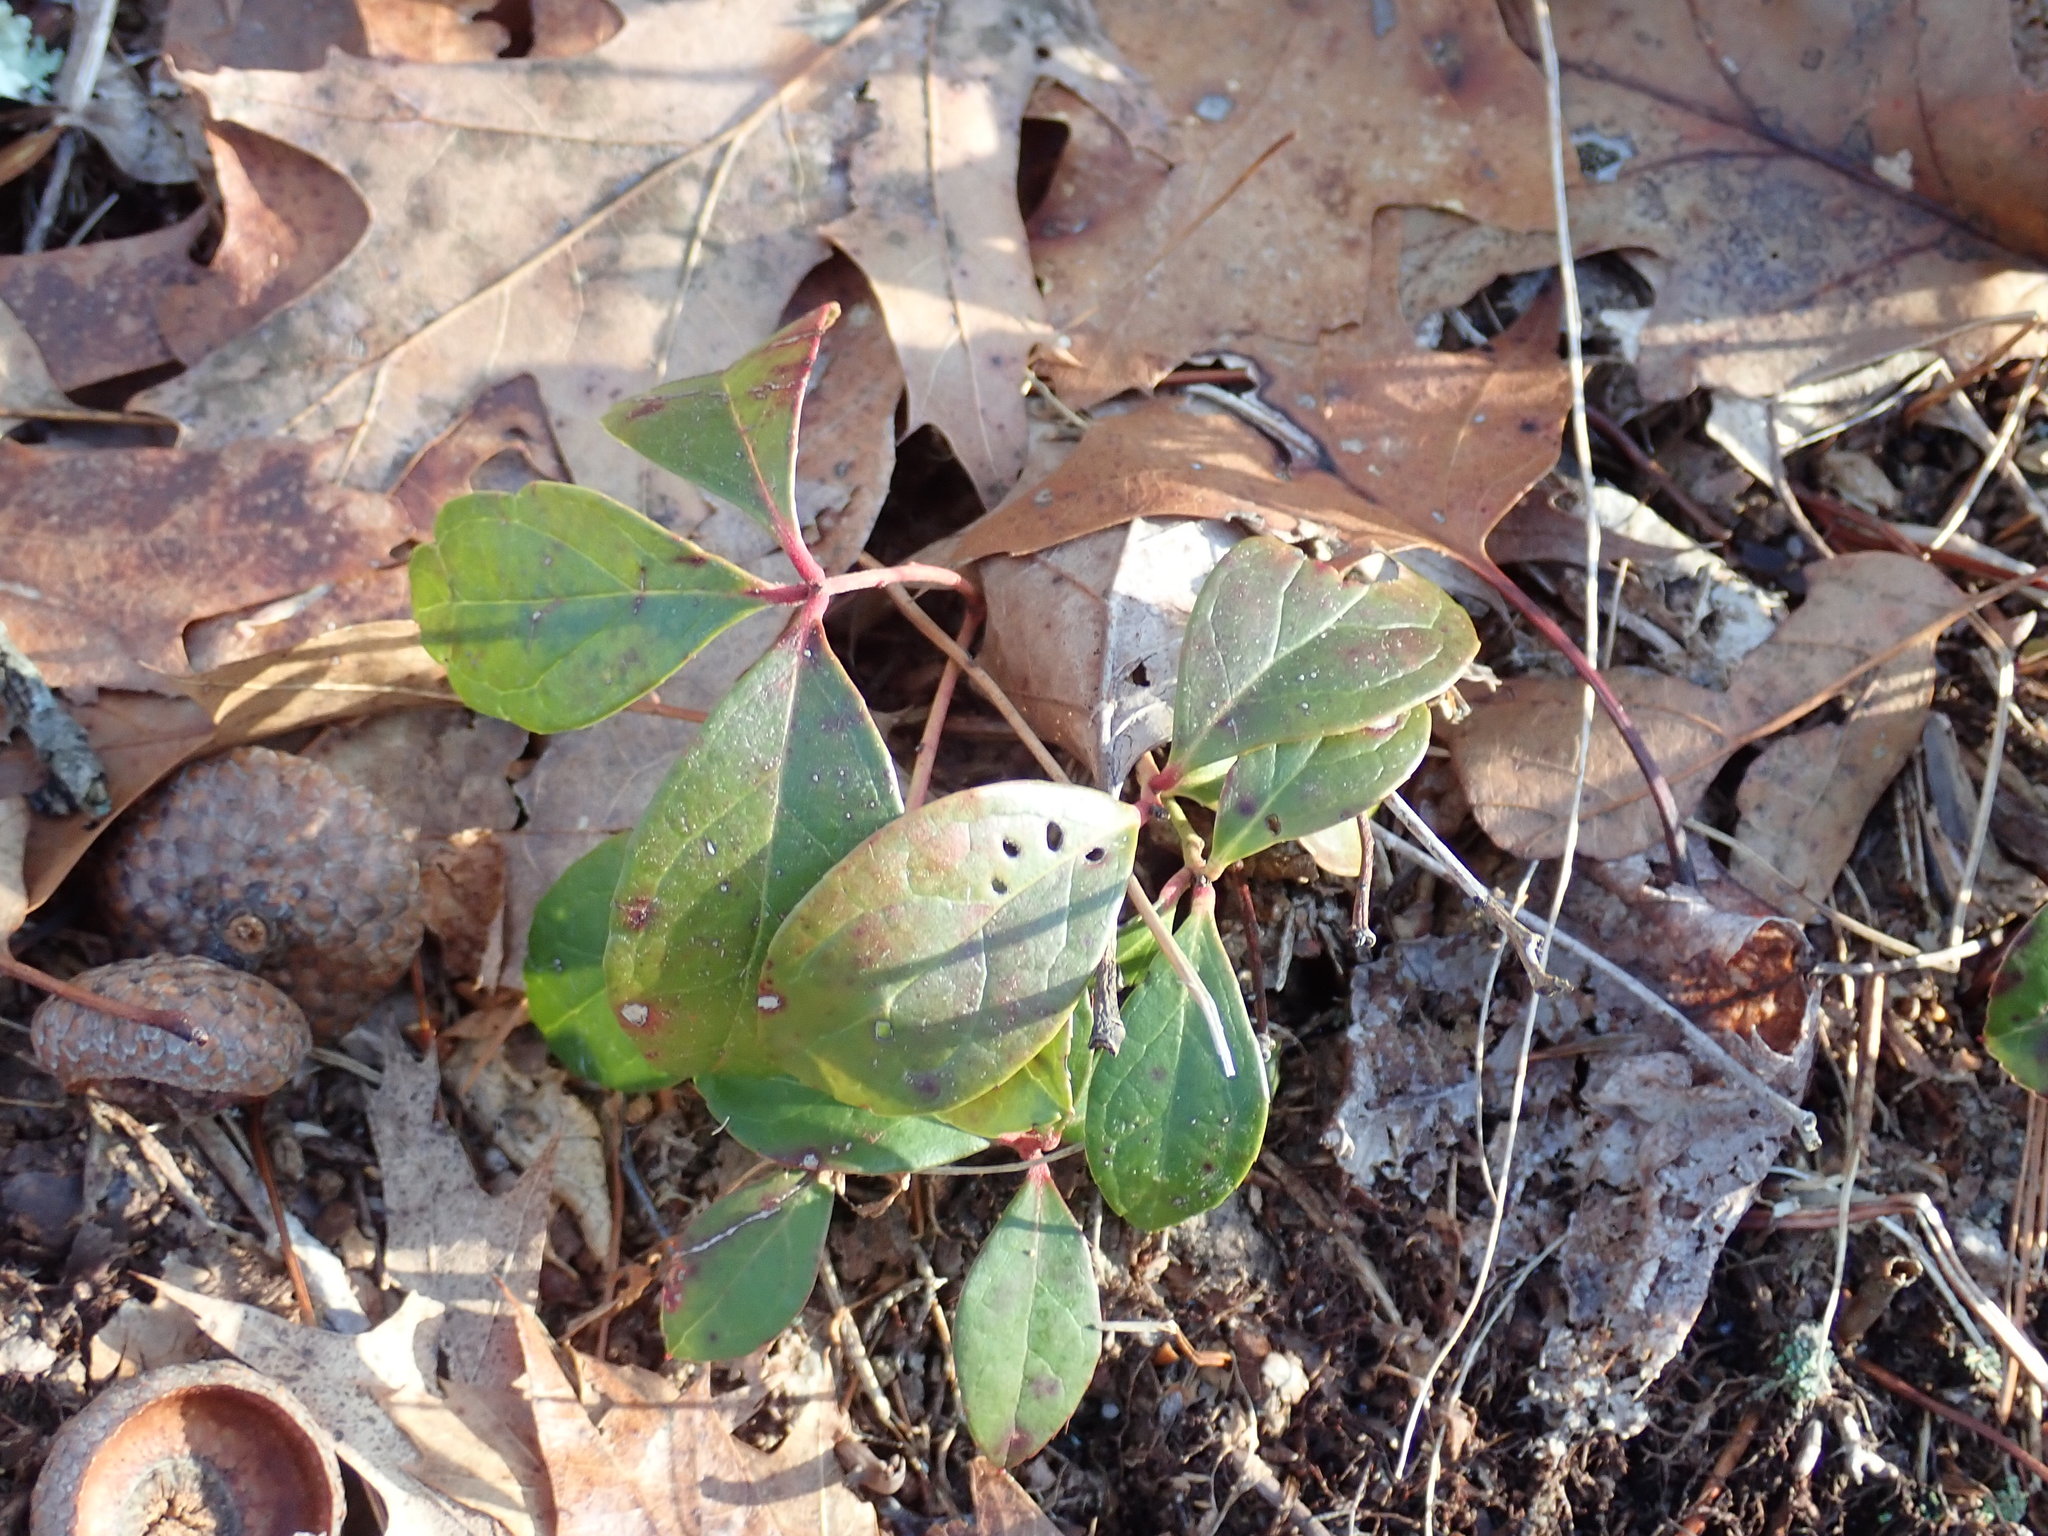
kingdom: Plantae
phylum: Tracheophyta
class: Magnoliopsida
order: Ericales
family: Ericaceae
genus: Gaultheria
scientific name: Gaultheria procumbens
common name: Checkerberry
